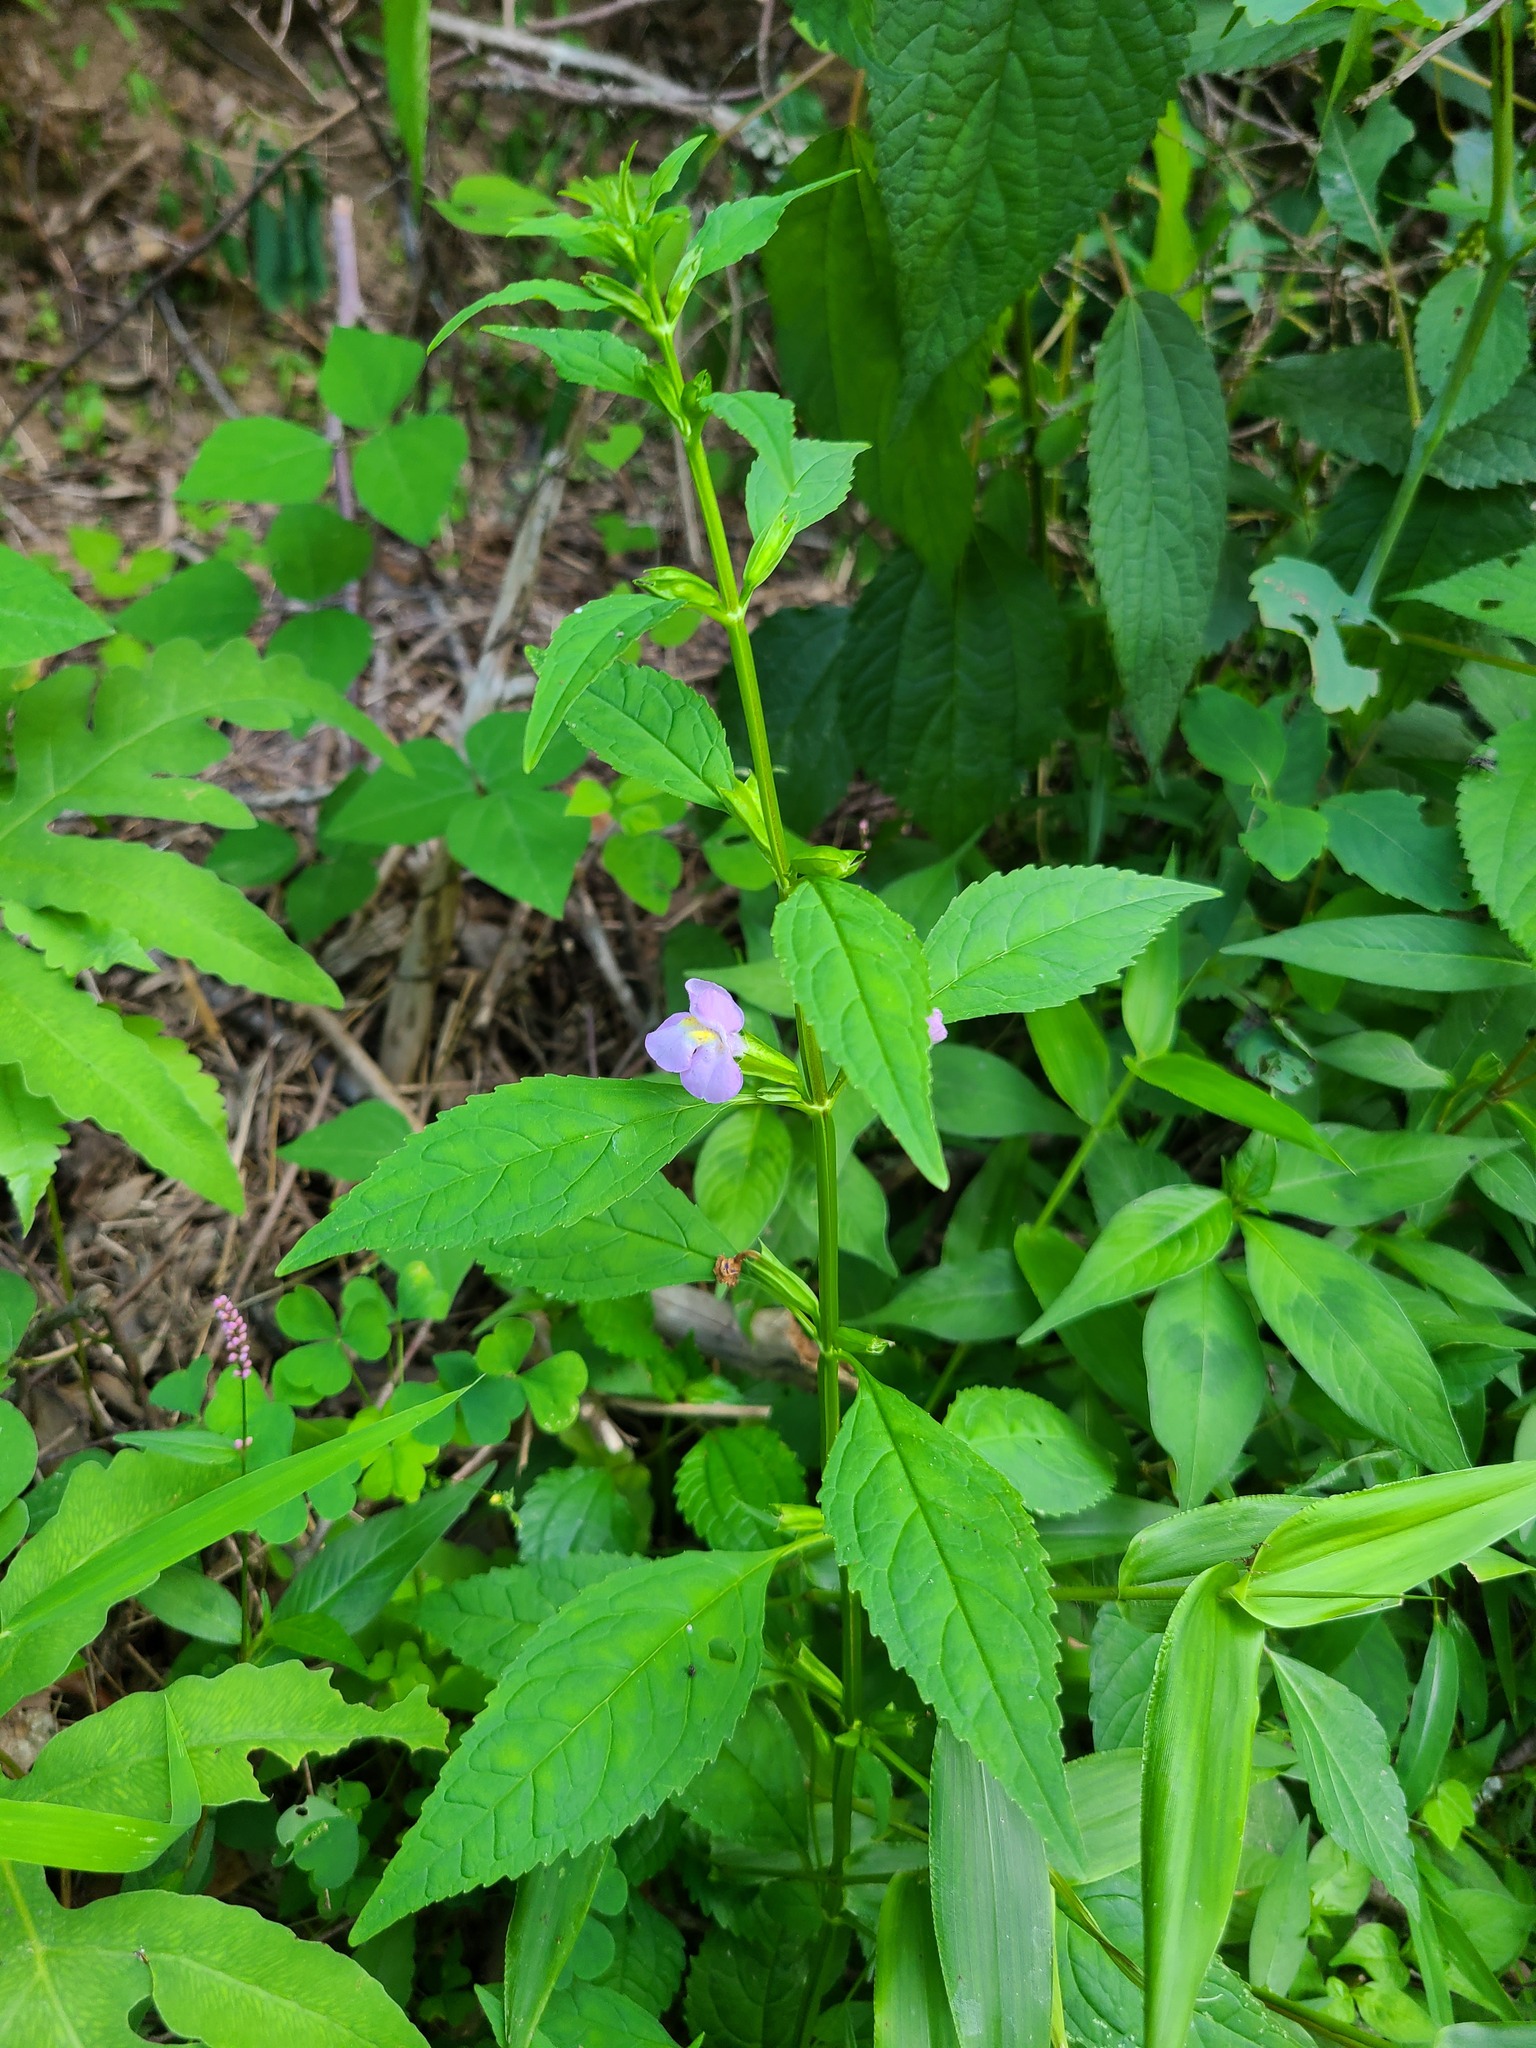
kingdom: Plantae
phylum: Tracheophyta
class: Magnoliopsida
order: Lamiales
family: Phrymaceae
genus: Mimulus
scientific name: Mimulus alatus
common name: Sharp-wing monkey-flower
